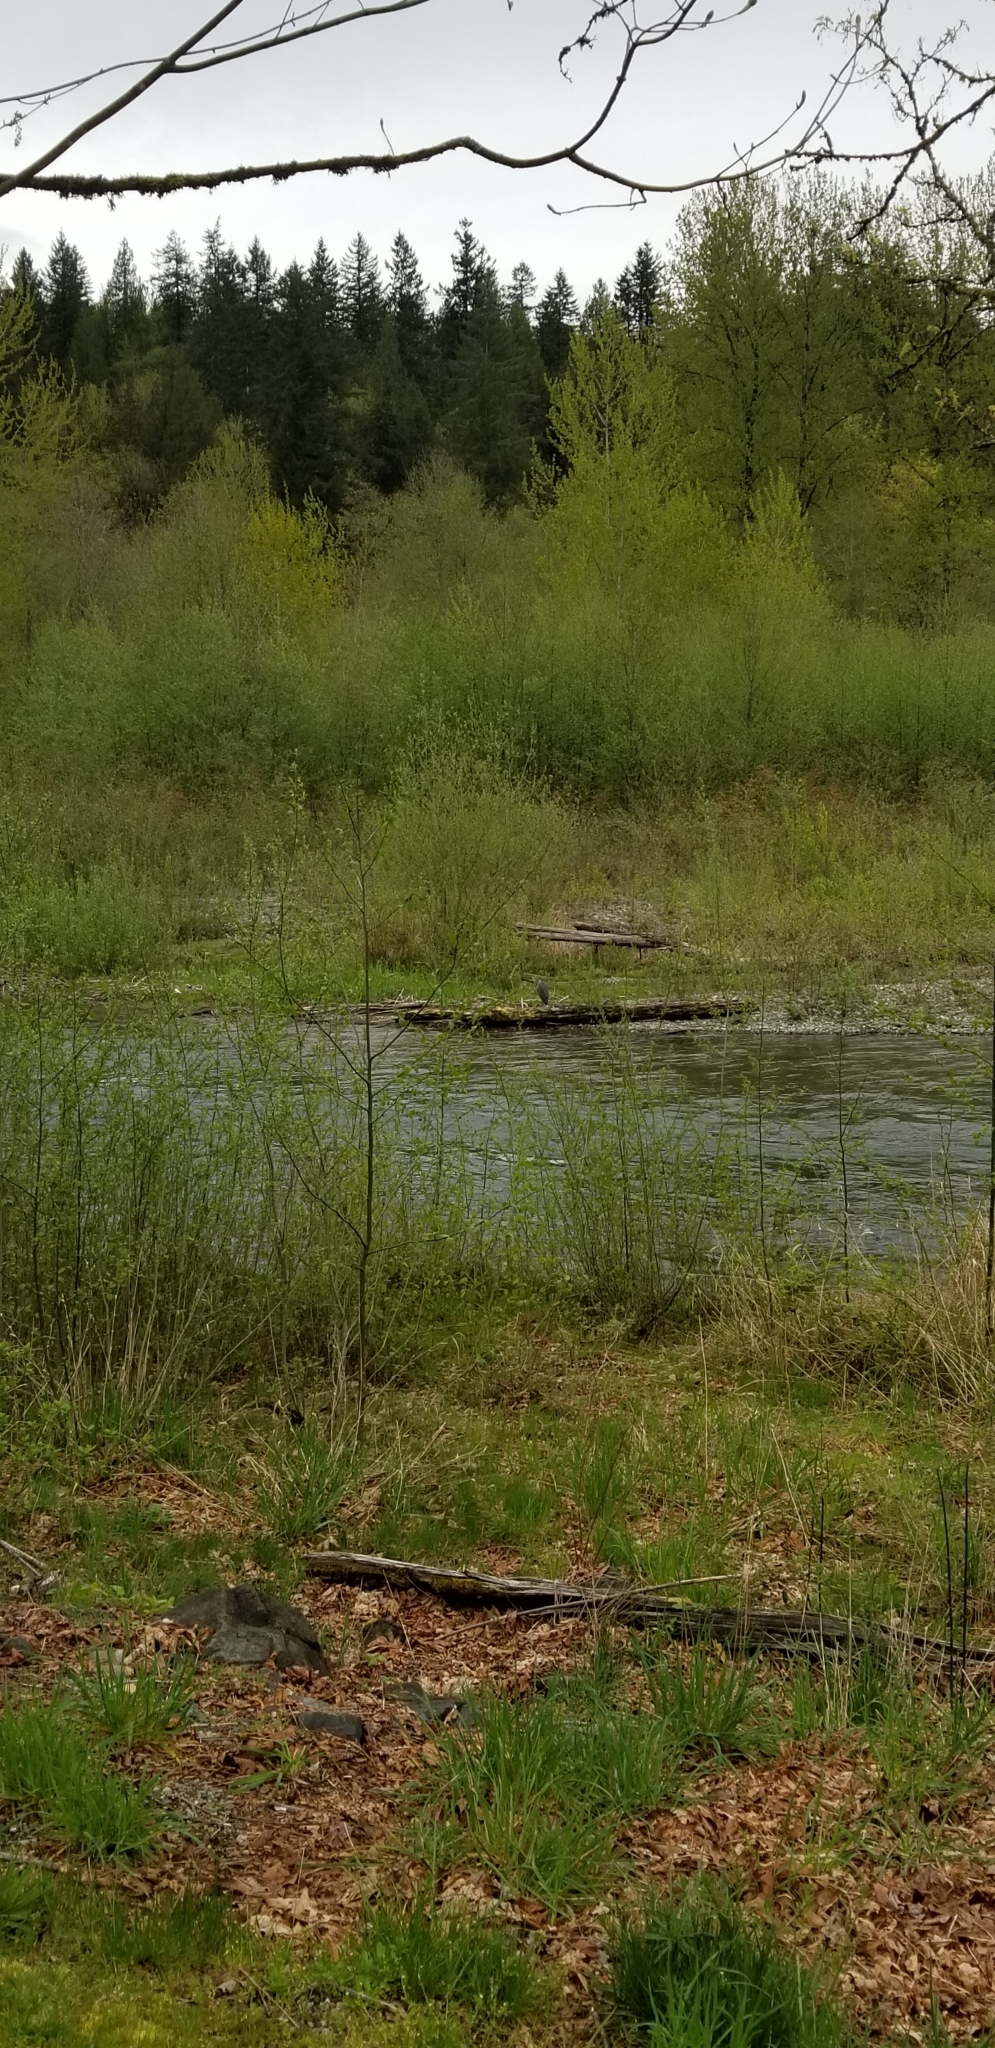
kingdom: Animalia
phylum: Chordata
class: Aves
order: Pelecaniformes
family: Ardeidae
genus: Ardea
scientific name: Ardea herodias
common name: Great blue heron
